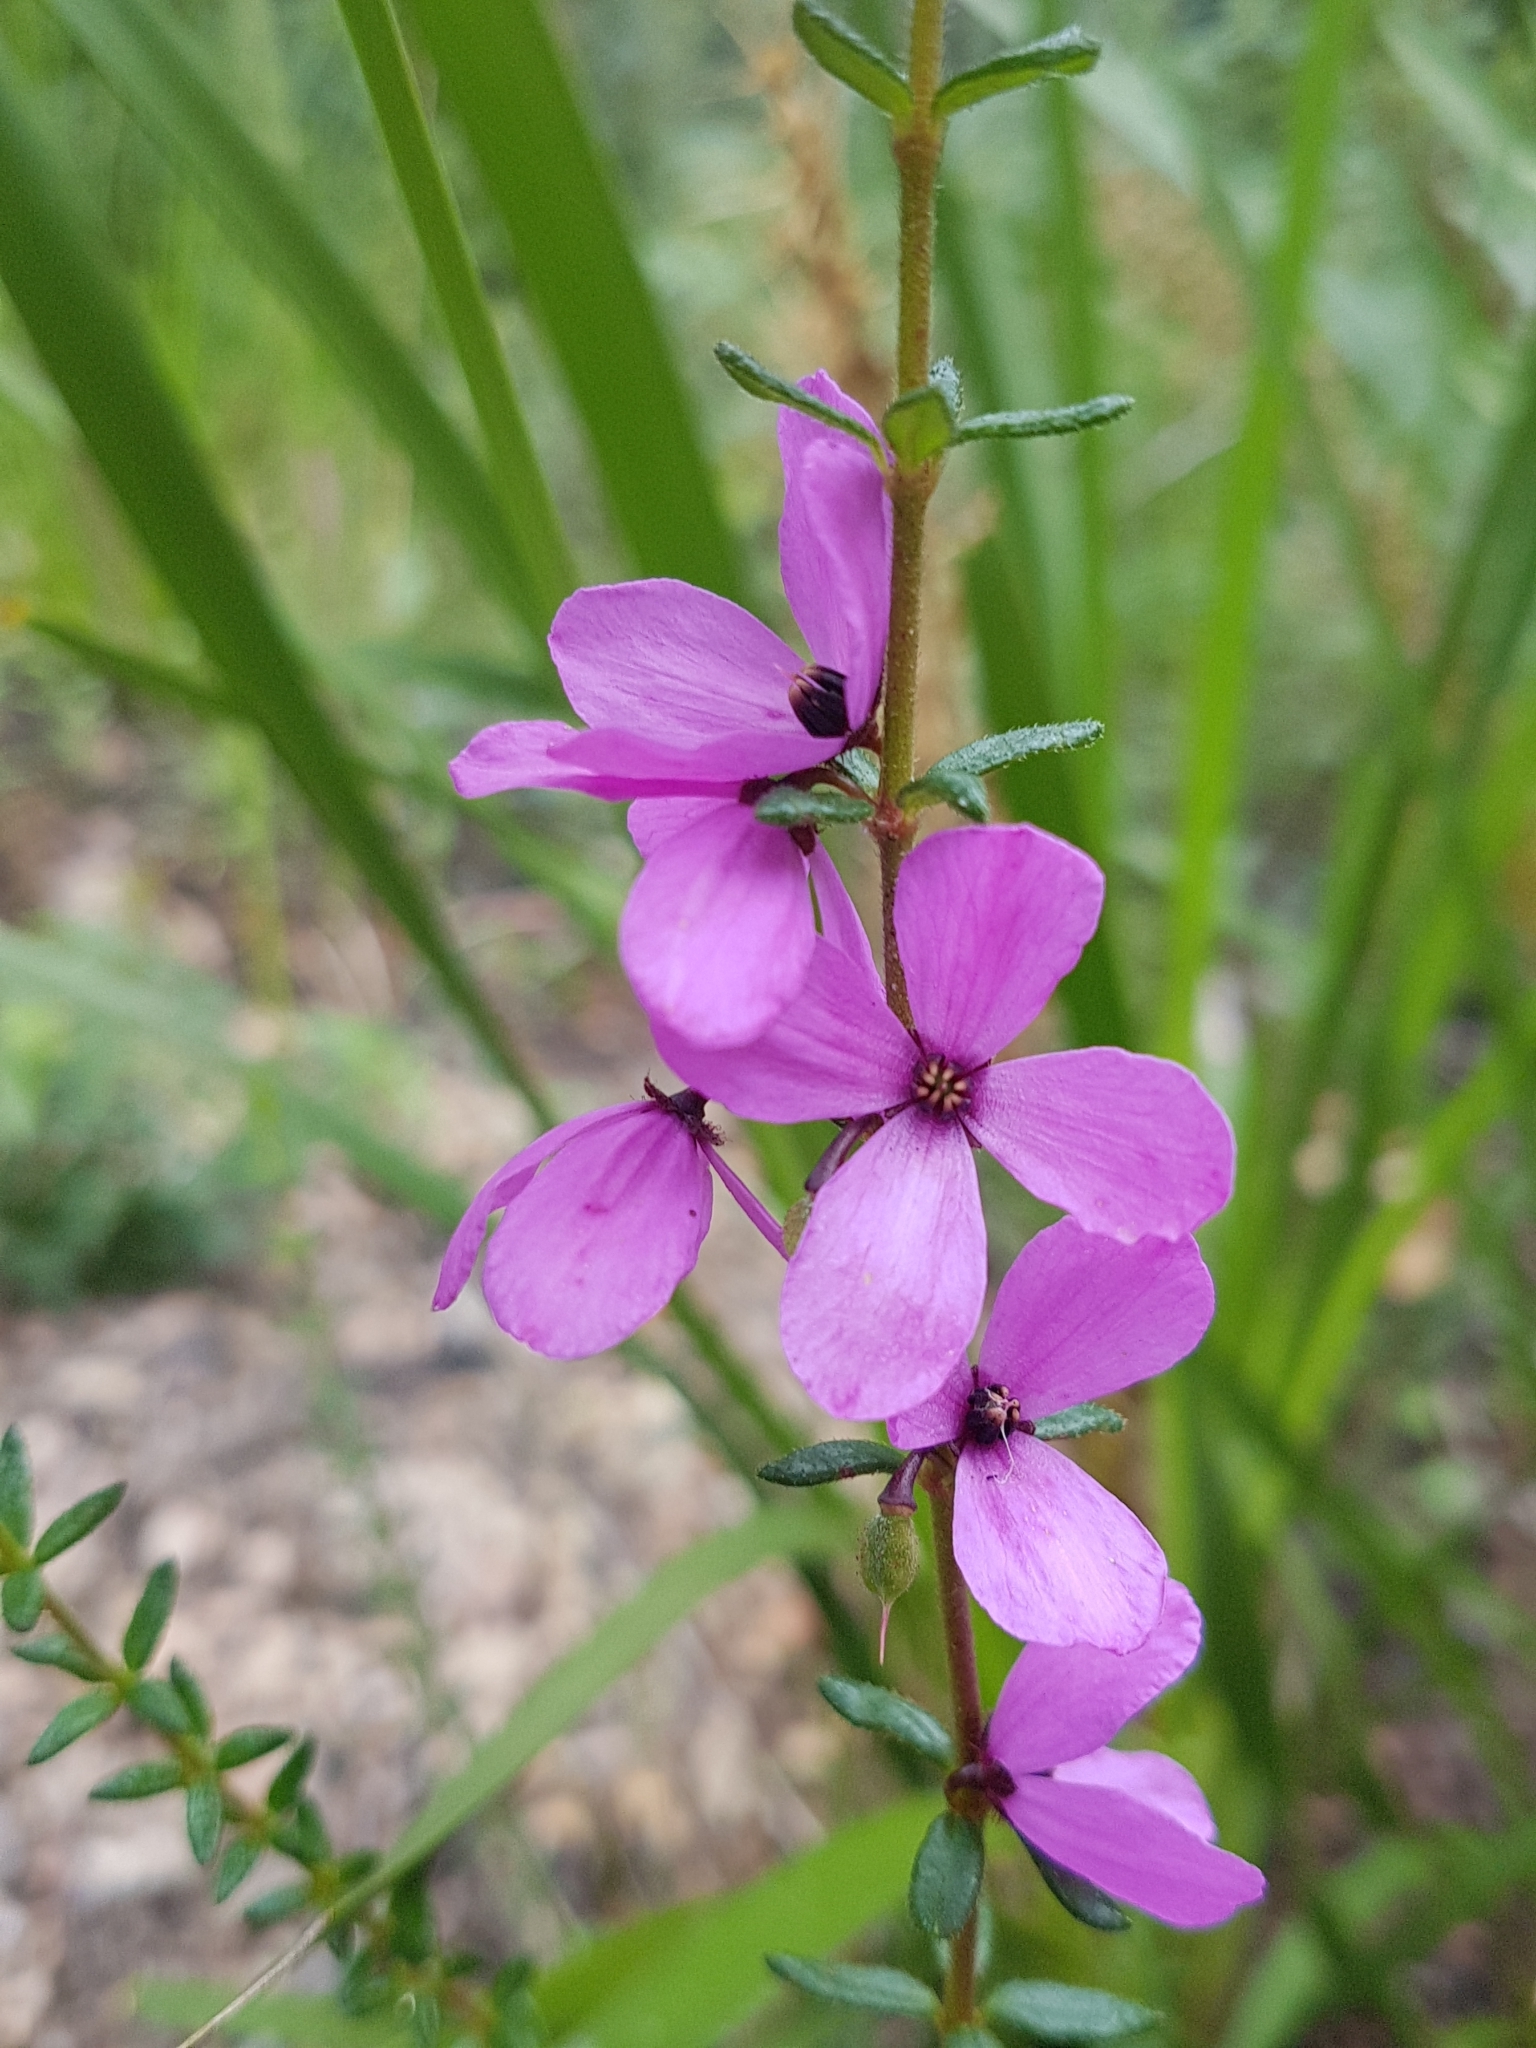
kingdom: Plantae
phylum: Tracheophyta
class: Magnoliopsida
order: Oxalidales
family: Elaeocarpaceae
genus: Tetratheca
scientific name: Tetratheca thymifolia
